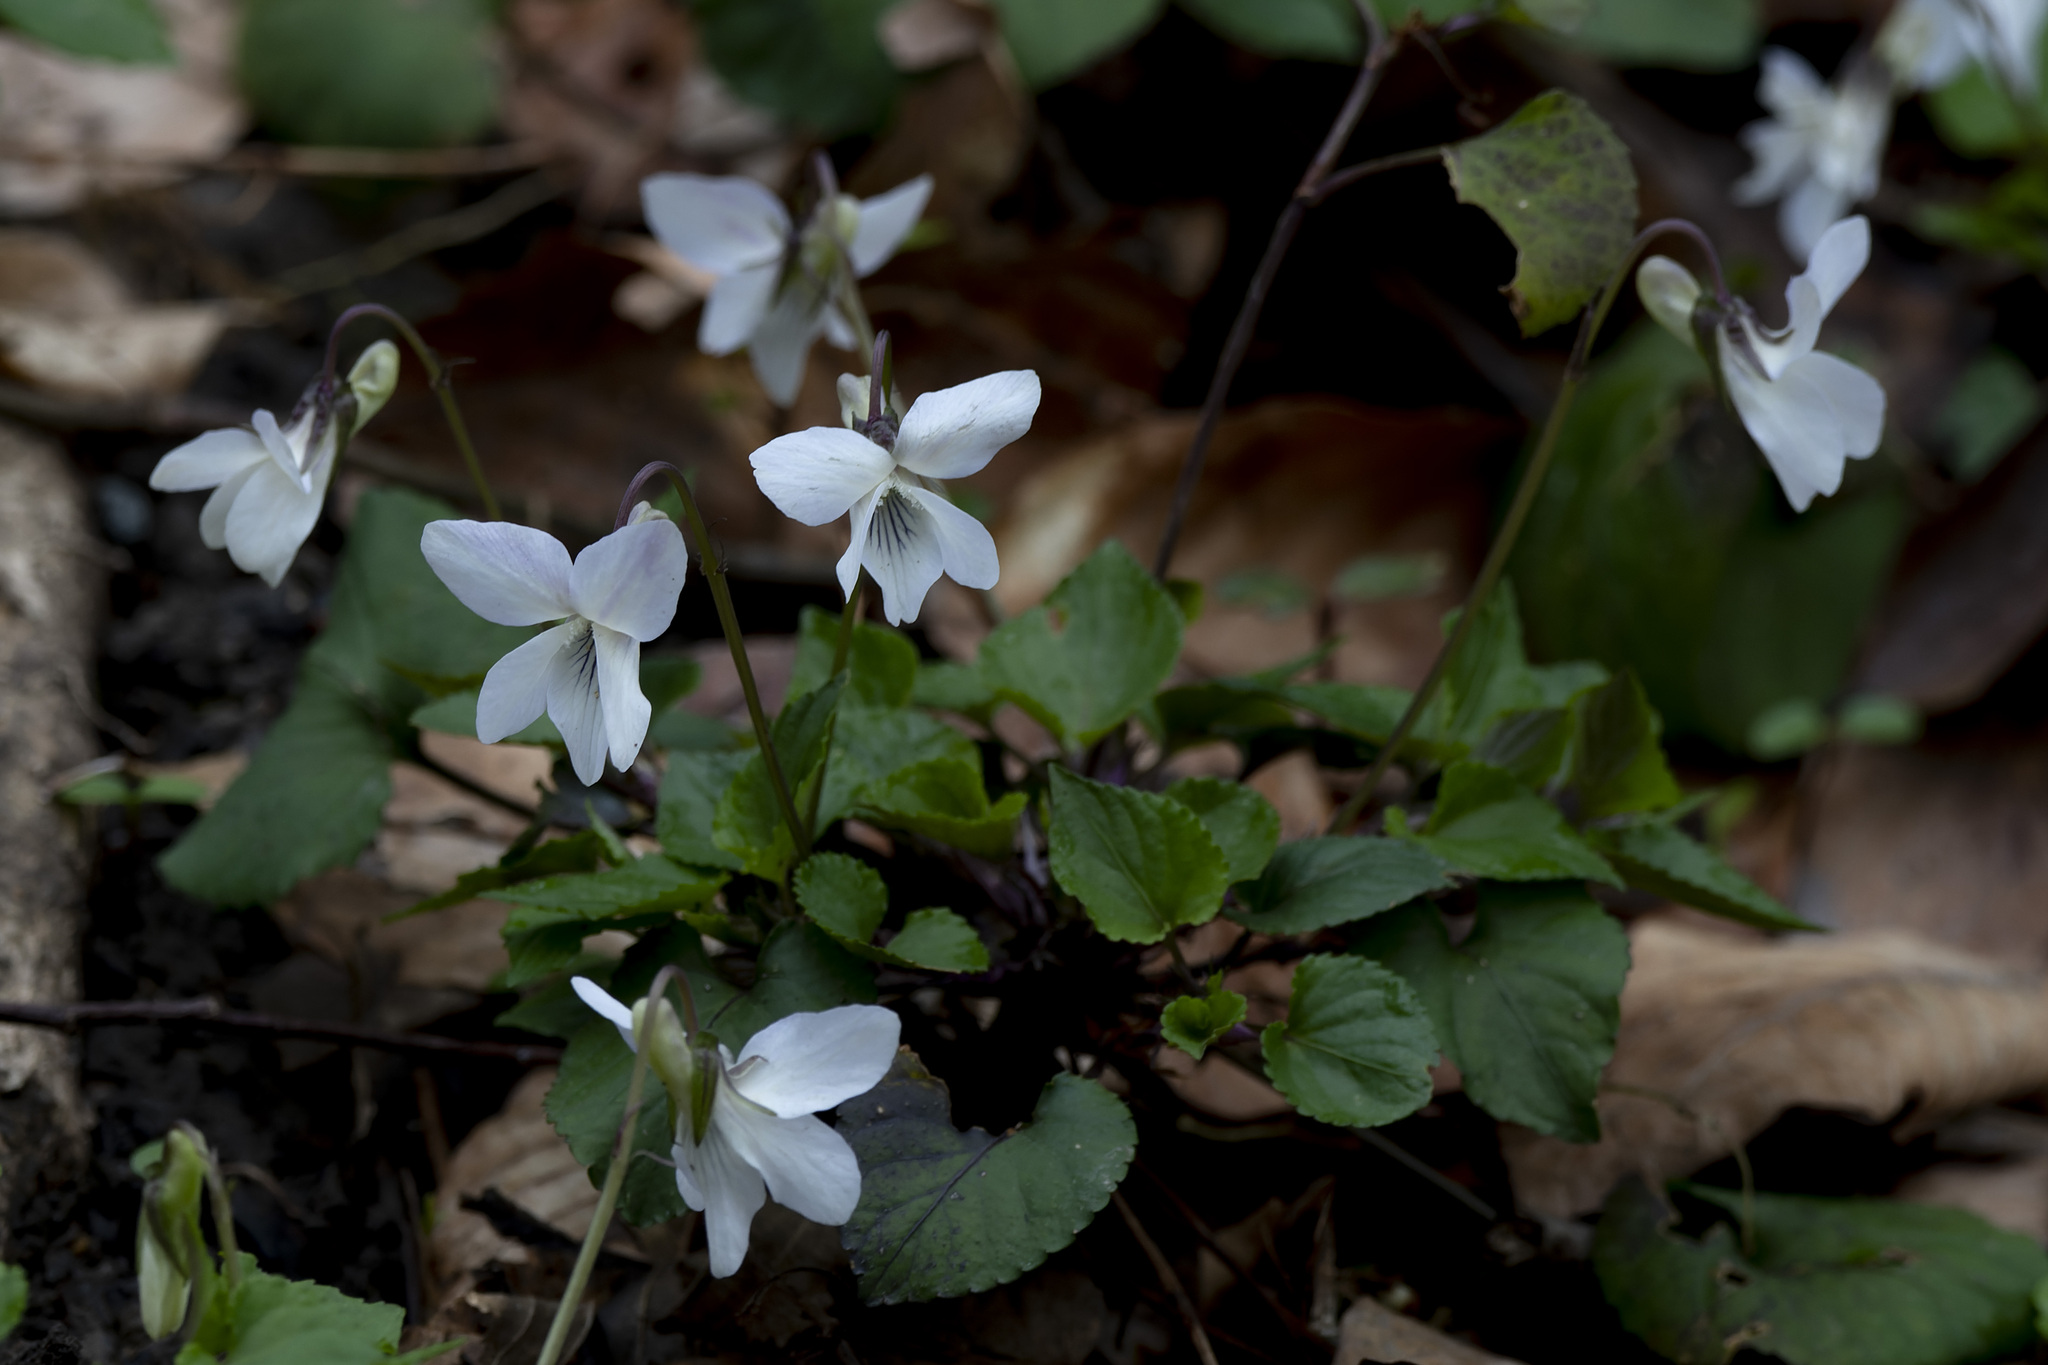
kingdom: Plantae
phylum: Tracheophyta
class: Magnoliopsida
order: Malpighiales
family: Violaceae
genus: Viola
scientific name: Viola alba
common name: White violet
